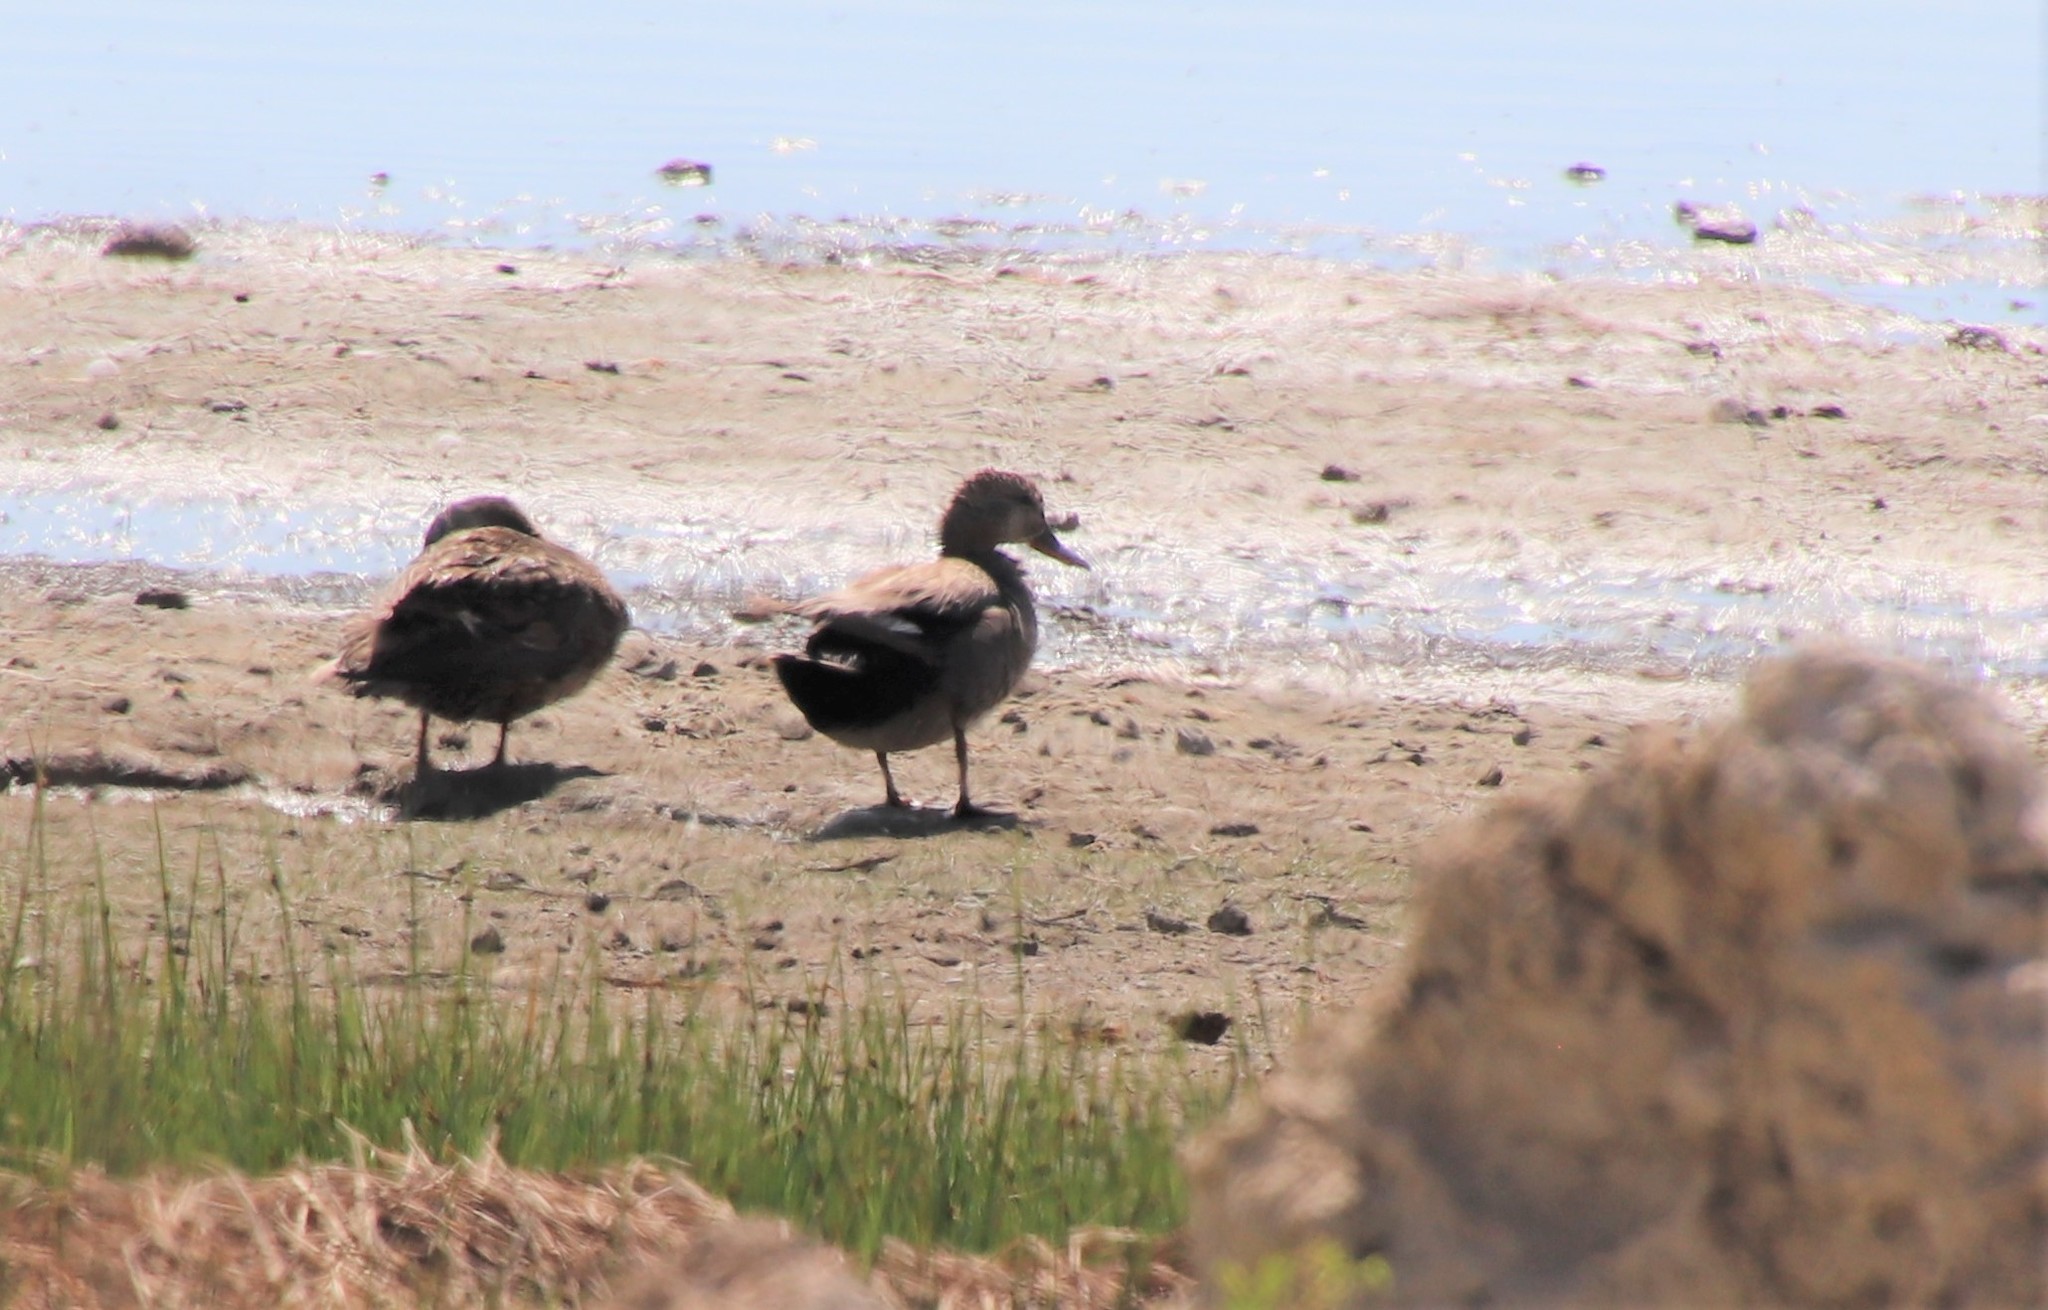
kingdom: Animalia
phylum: Chordata
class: Aves
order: Anseriformes
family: Anatidae
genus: Mareca
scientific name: Mareca strepera
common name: Gadwall
